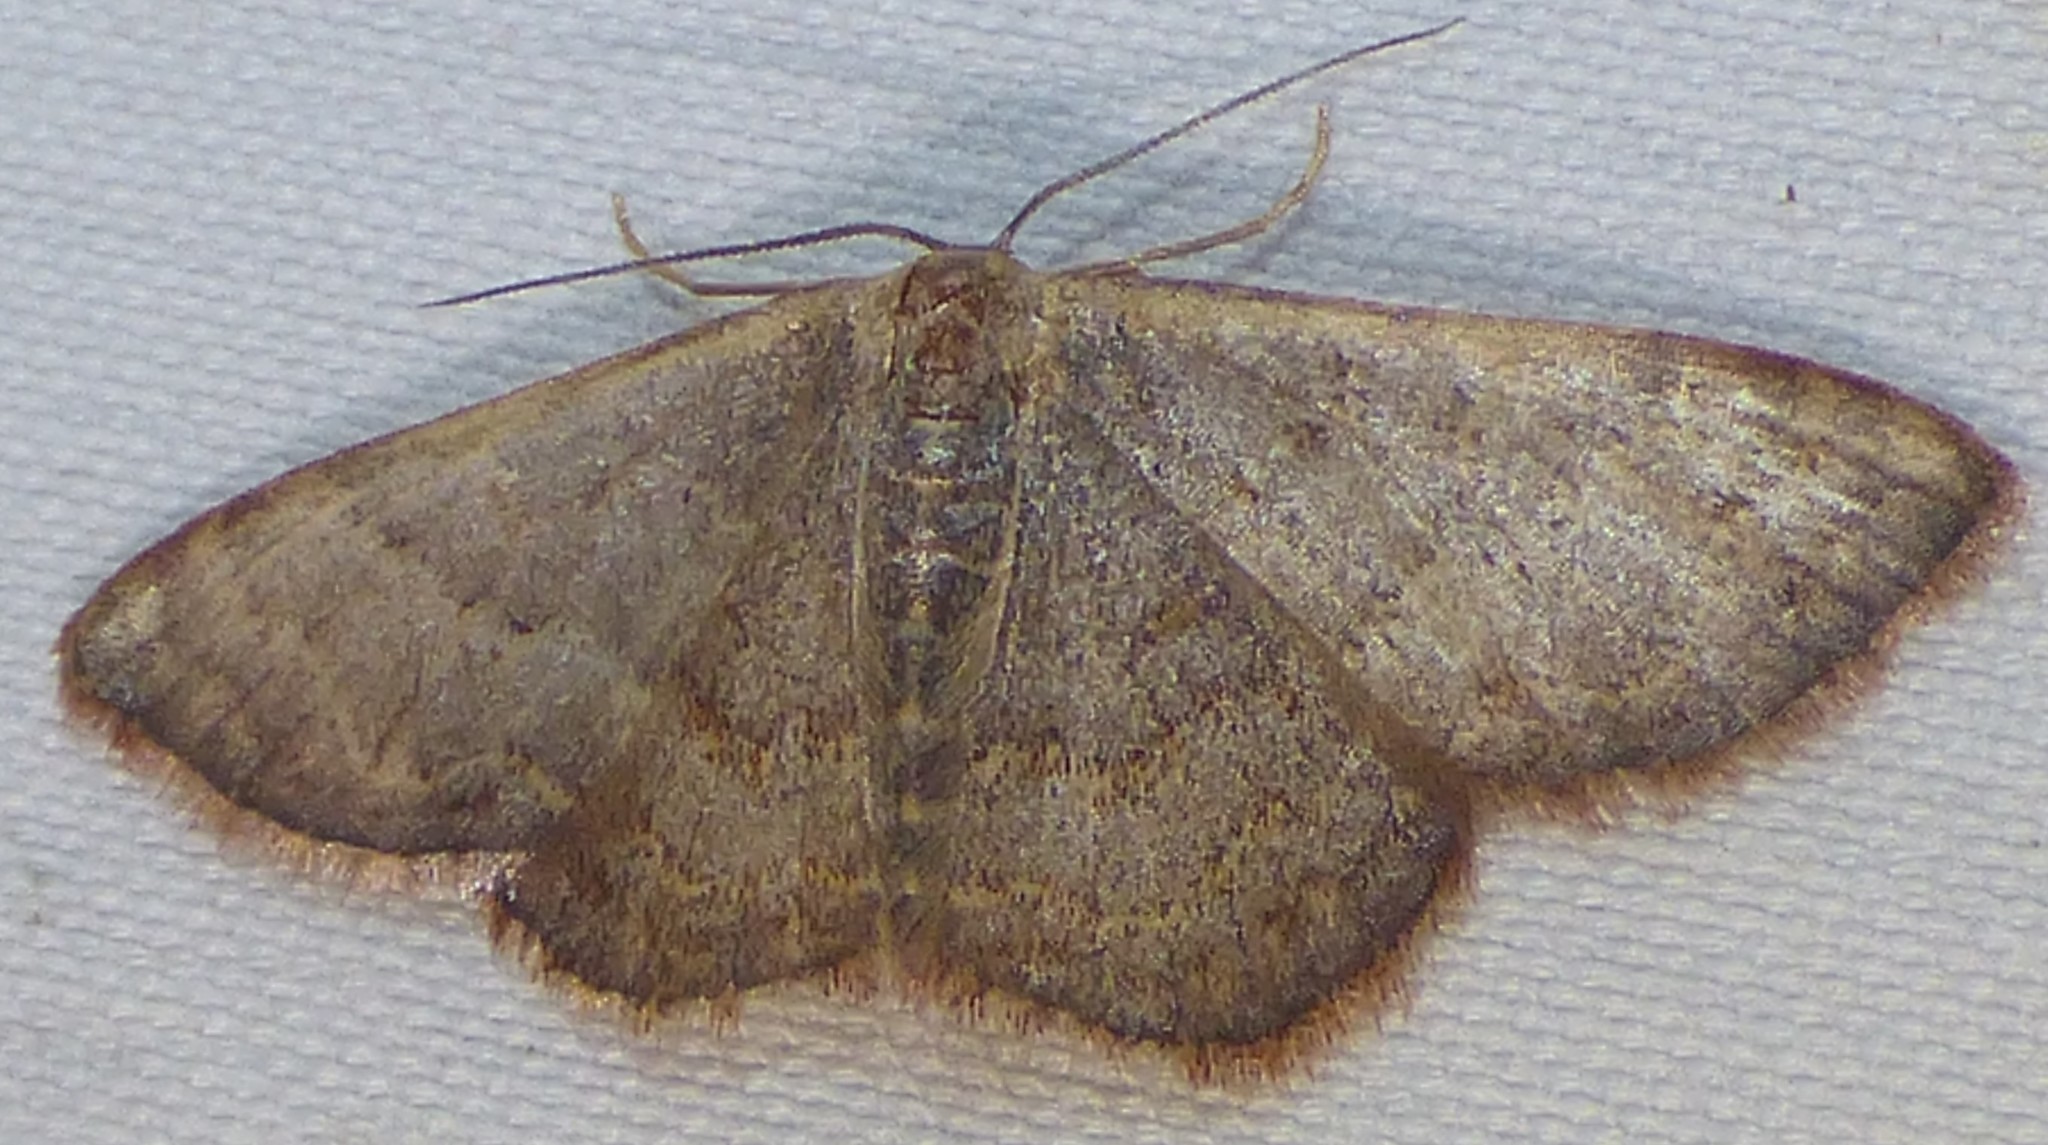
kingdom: Animalia
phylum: Arthropoda
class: Insecta
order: Lepidoptera
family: Geometridae
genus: Leptostales
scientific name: Leptostales pannaria
